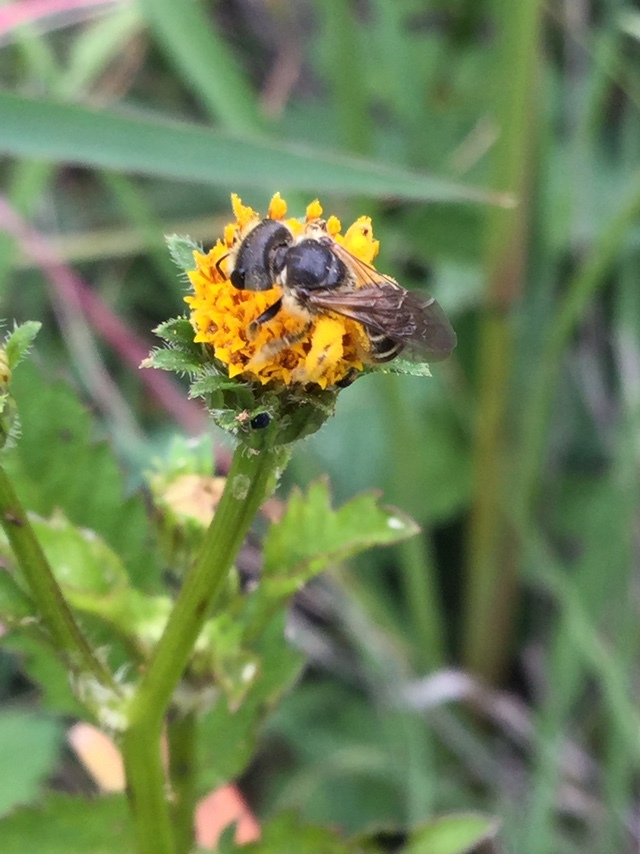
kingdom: Animalia
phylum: Arthropoda
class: Insecta
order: Hymenoptera
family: Halictidae
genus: Halictus
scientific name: Halictus ligatus
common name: Ligated furrow bee
